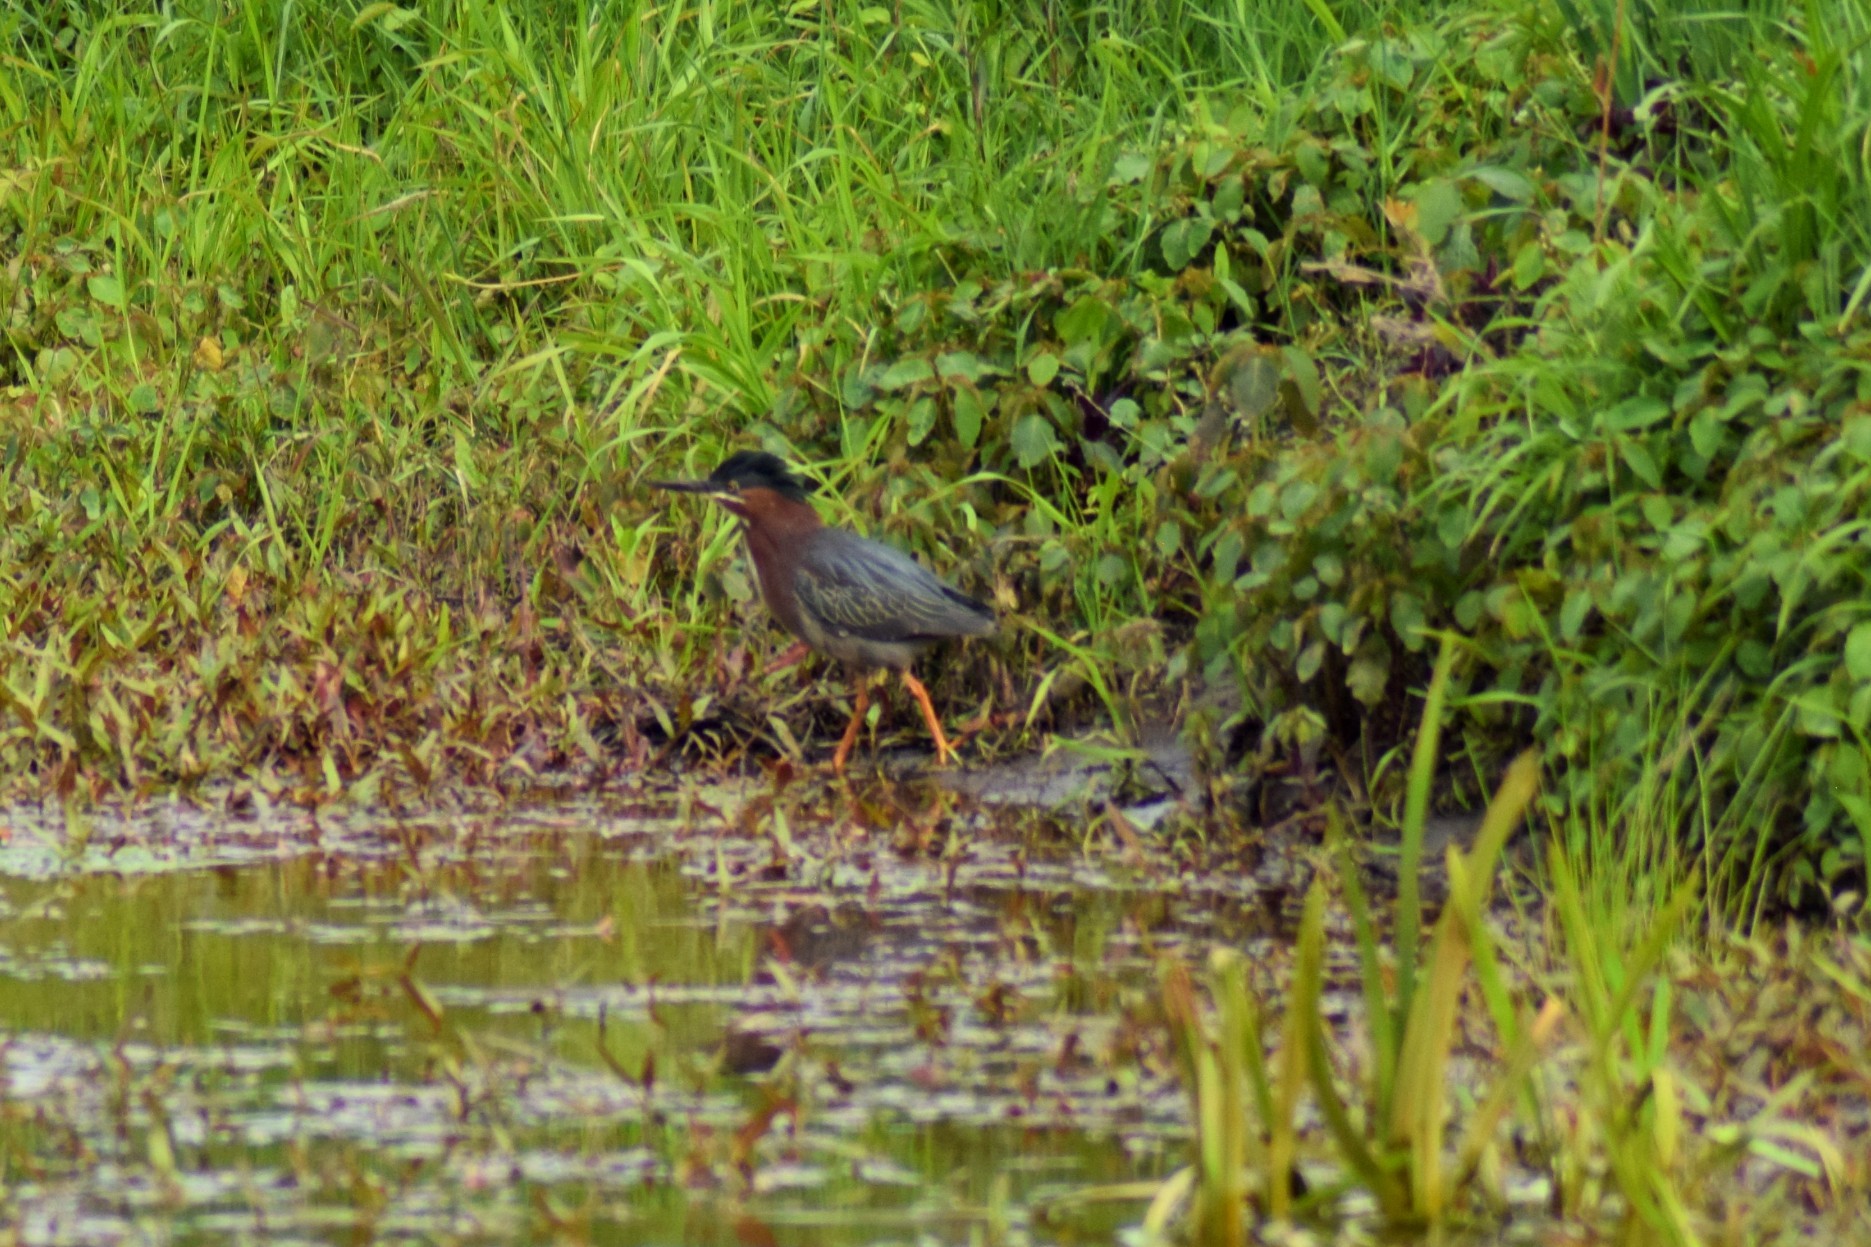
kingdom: Animalia
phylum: Chordata
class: Aves
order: Pelecaniformes
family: Ardeidae
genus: Butorides
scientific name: Butorides virescens
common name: Green heron
